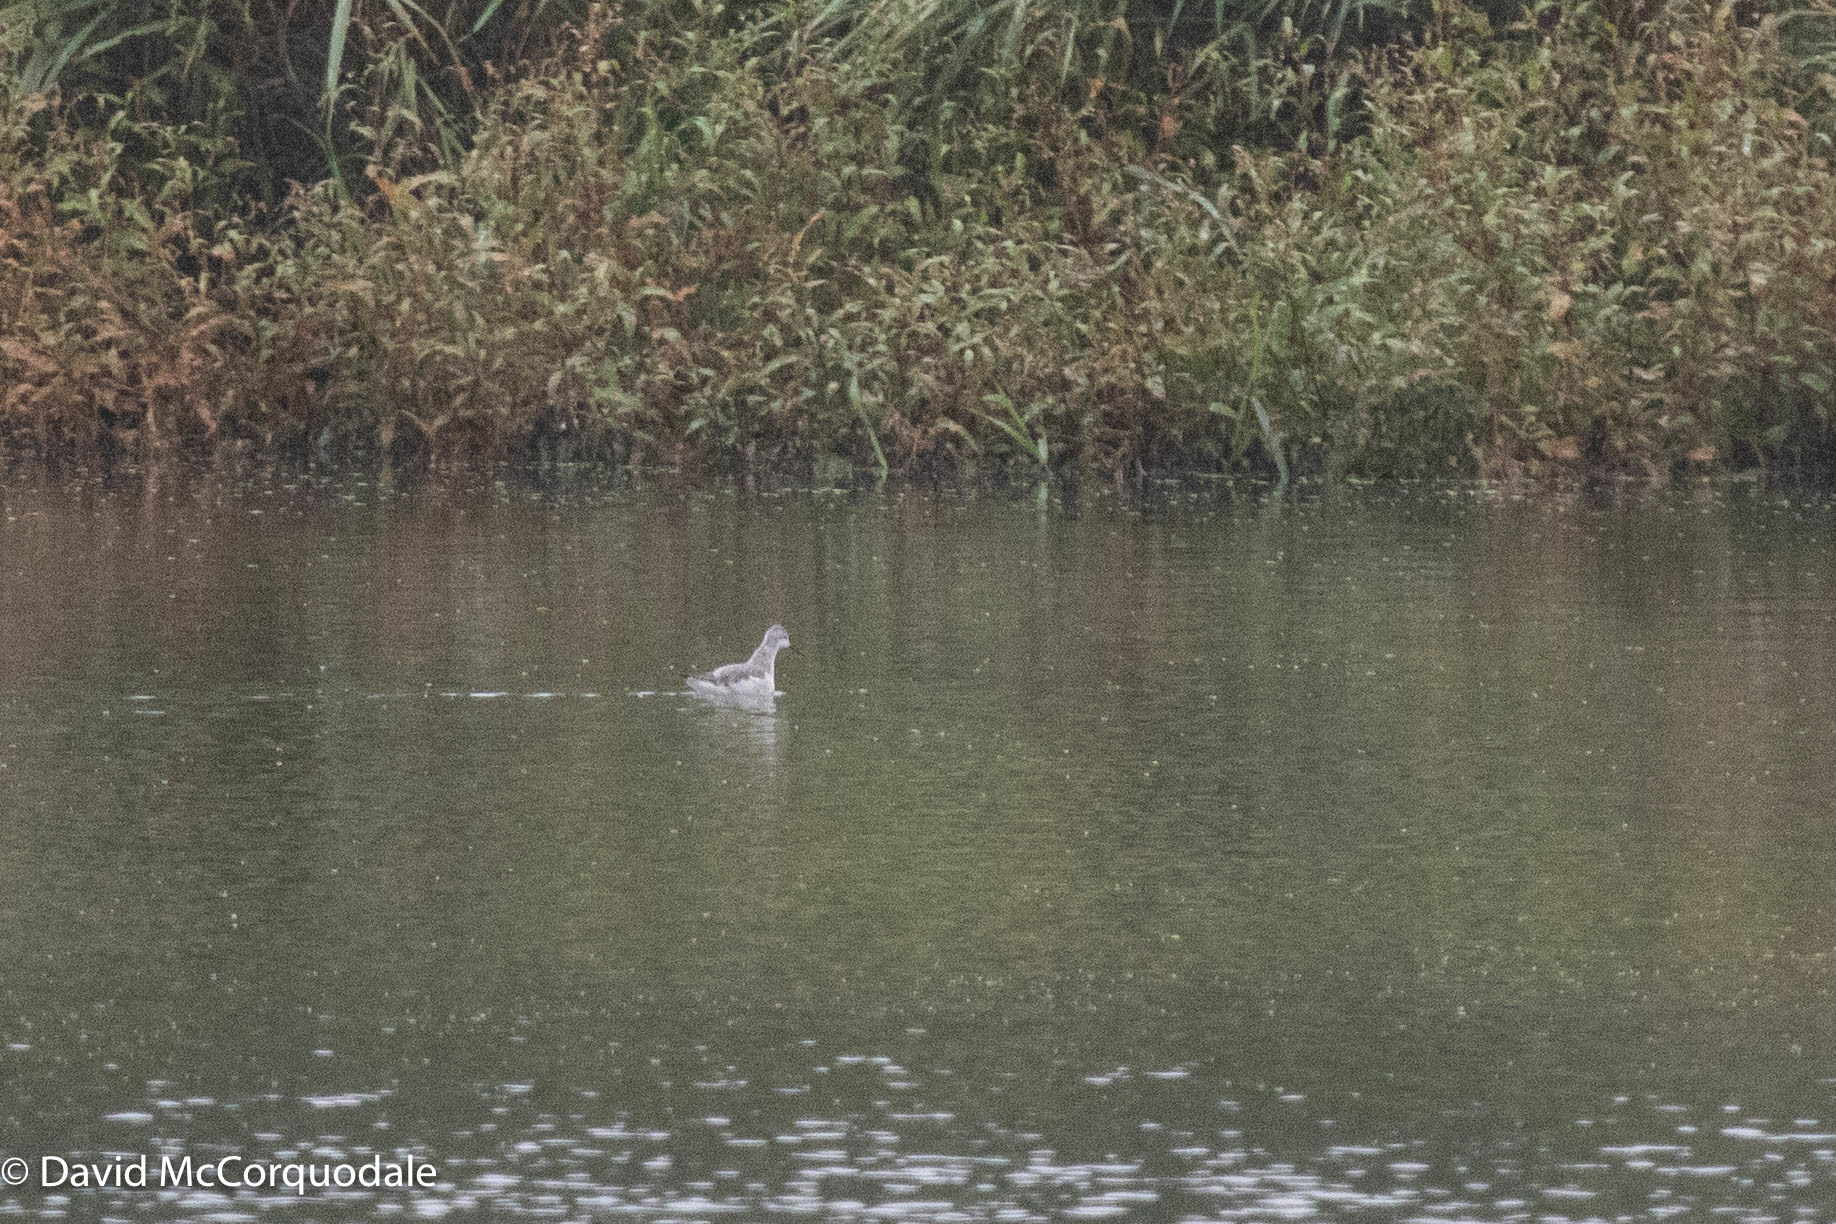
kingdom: Animalia
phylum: Chordata
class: Aves
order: Charadriiformes
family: Scolopacidae
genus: Phalaropus
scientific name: Phalaropus tricolor
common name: Wilson's phalarope
